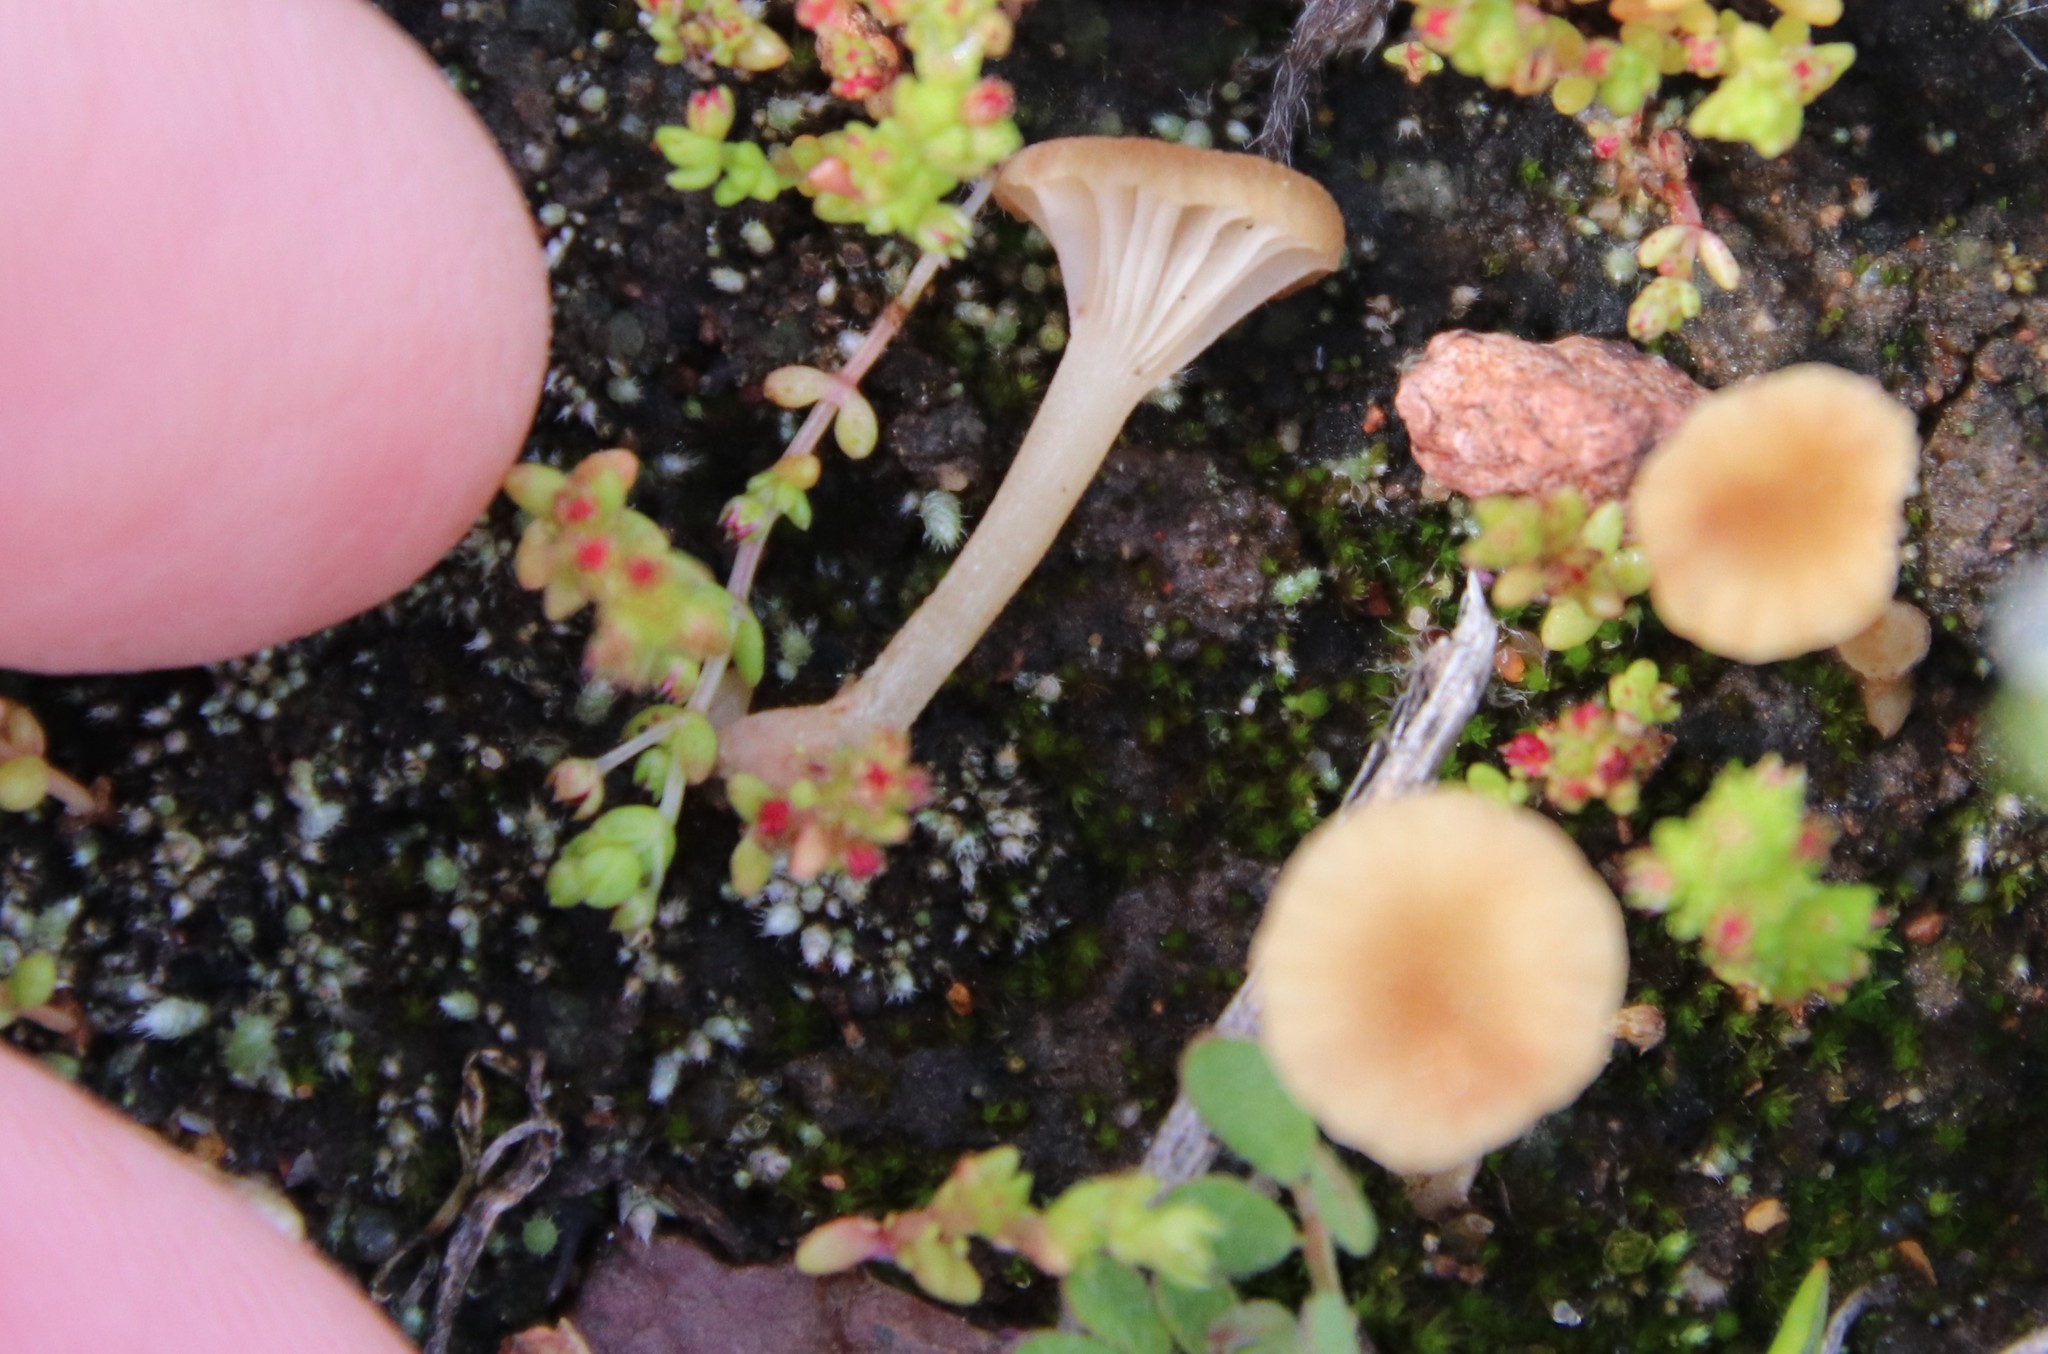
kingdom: Fungi
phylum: Basidiomycota
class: Agaricomycetes
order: Hymenochaetales
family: Rickenellaceae
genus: Contumyces
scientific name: Contumyces rosellus
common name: Rosy navel
